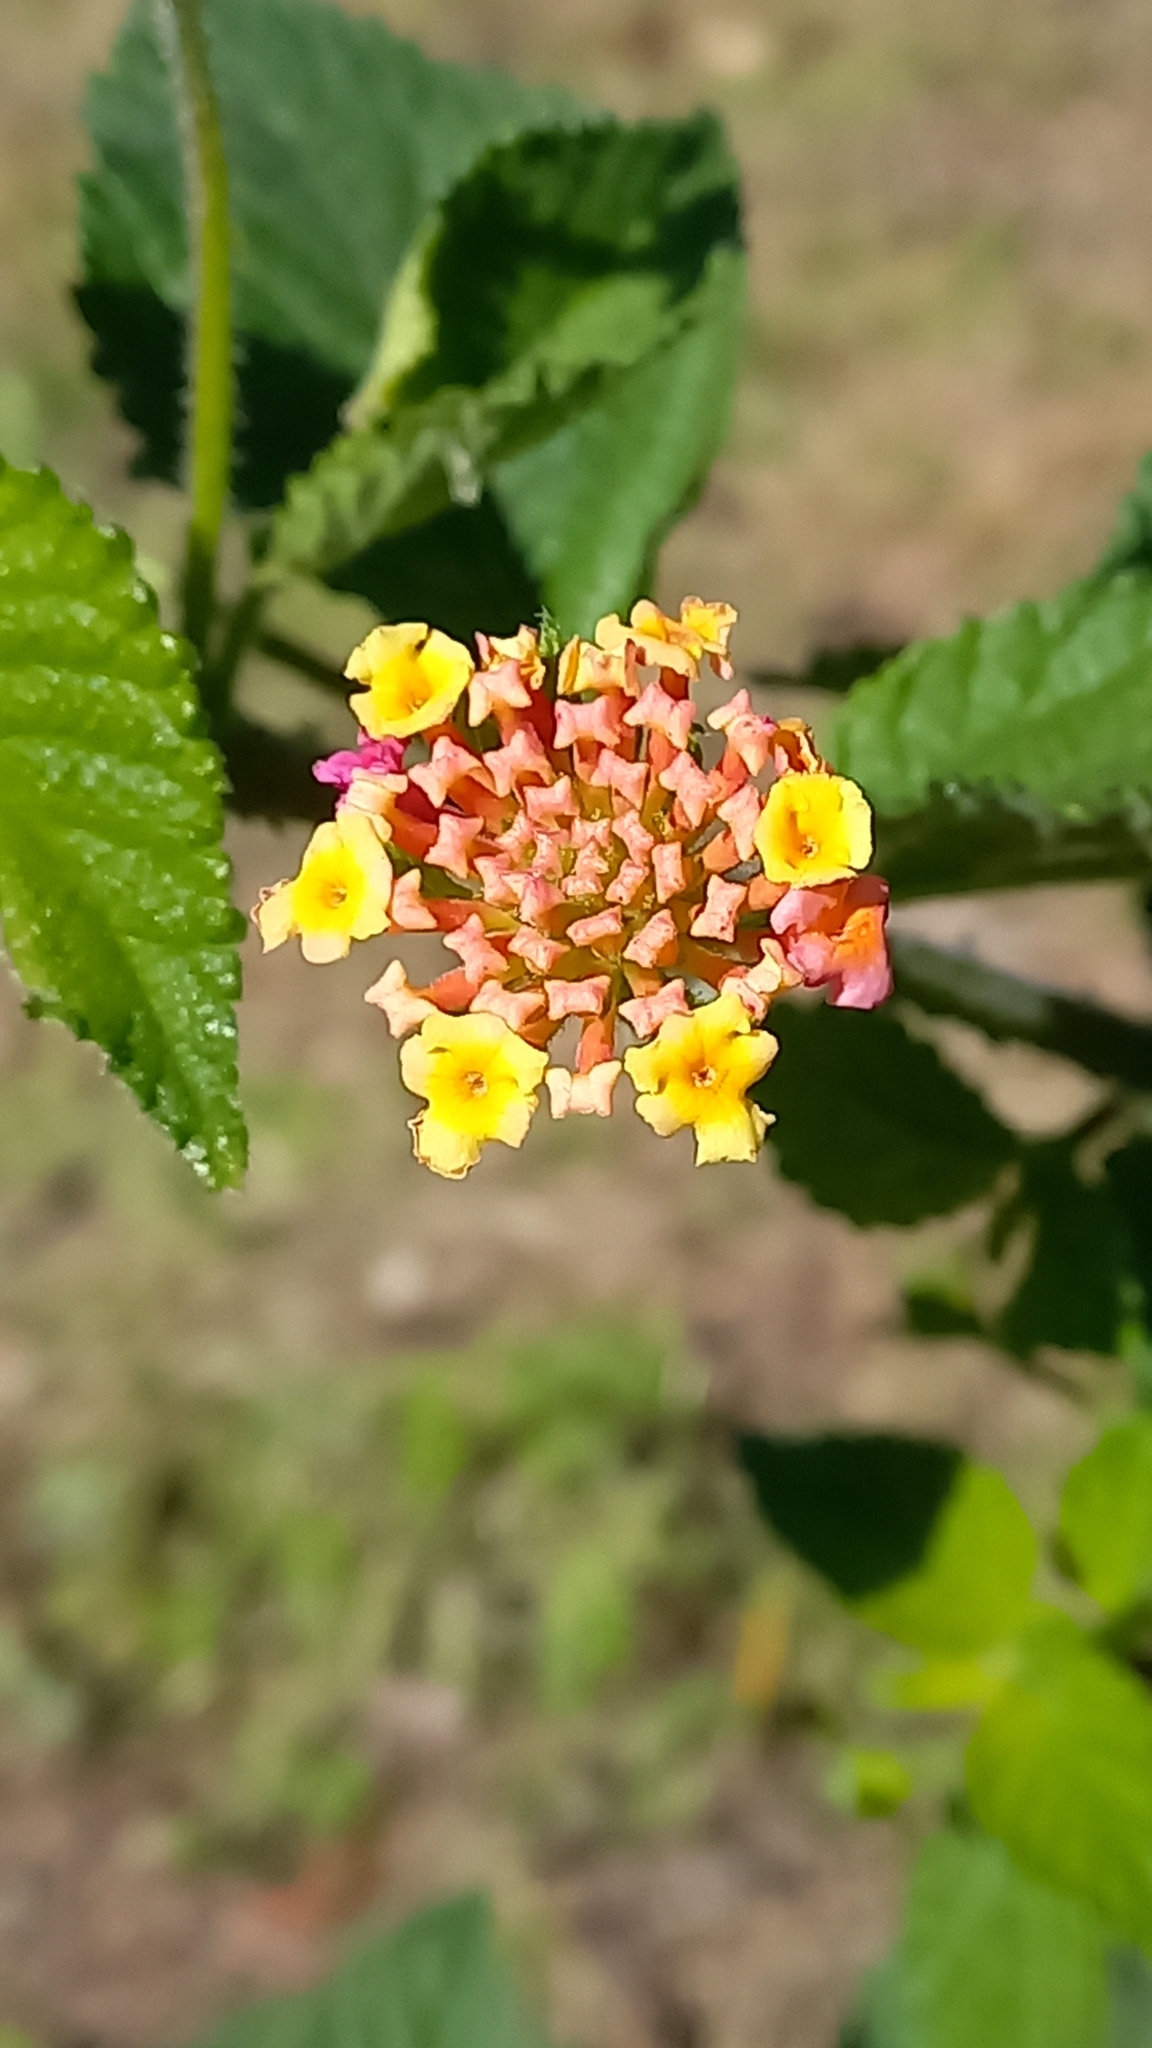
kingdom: Plantae
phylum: Tracheophyta
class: Magnoliopsida
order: Lamiales
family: Verbenaceae
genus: Lantana
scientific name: Lantana camara
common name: Lantana
